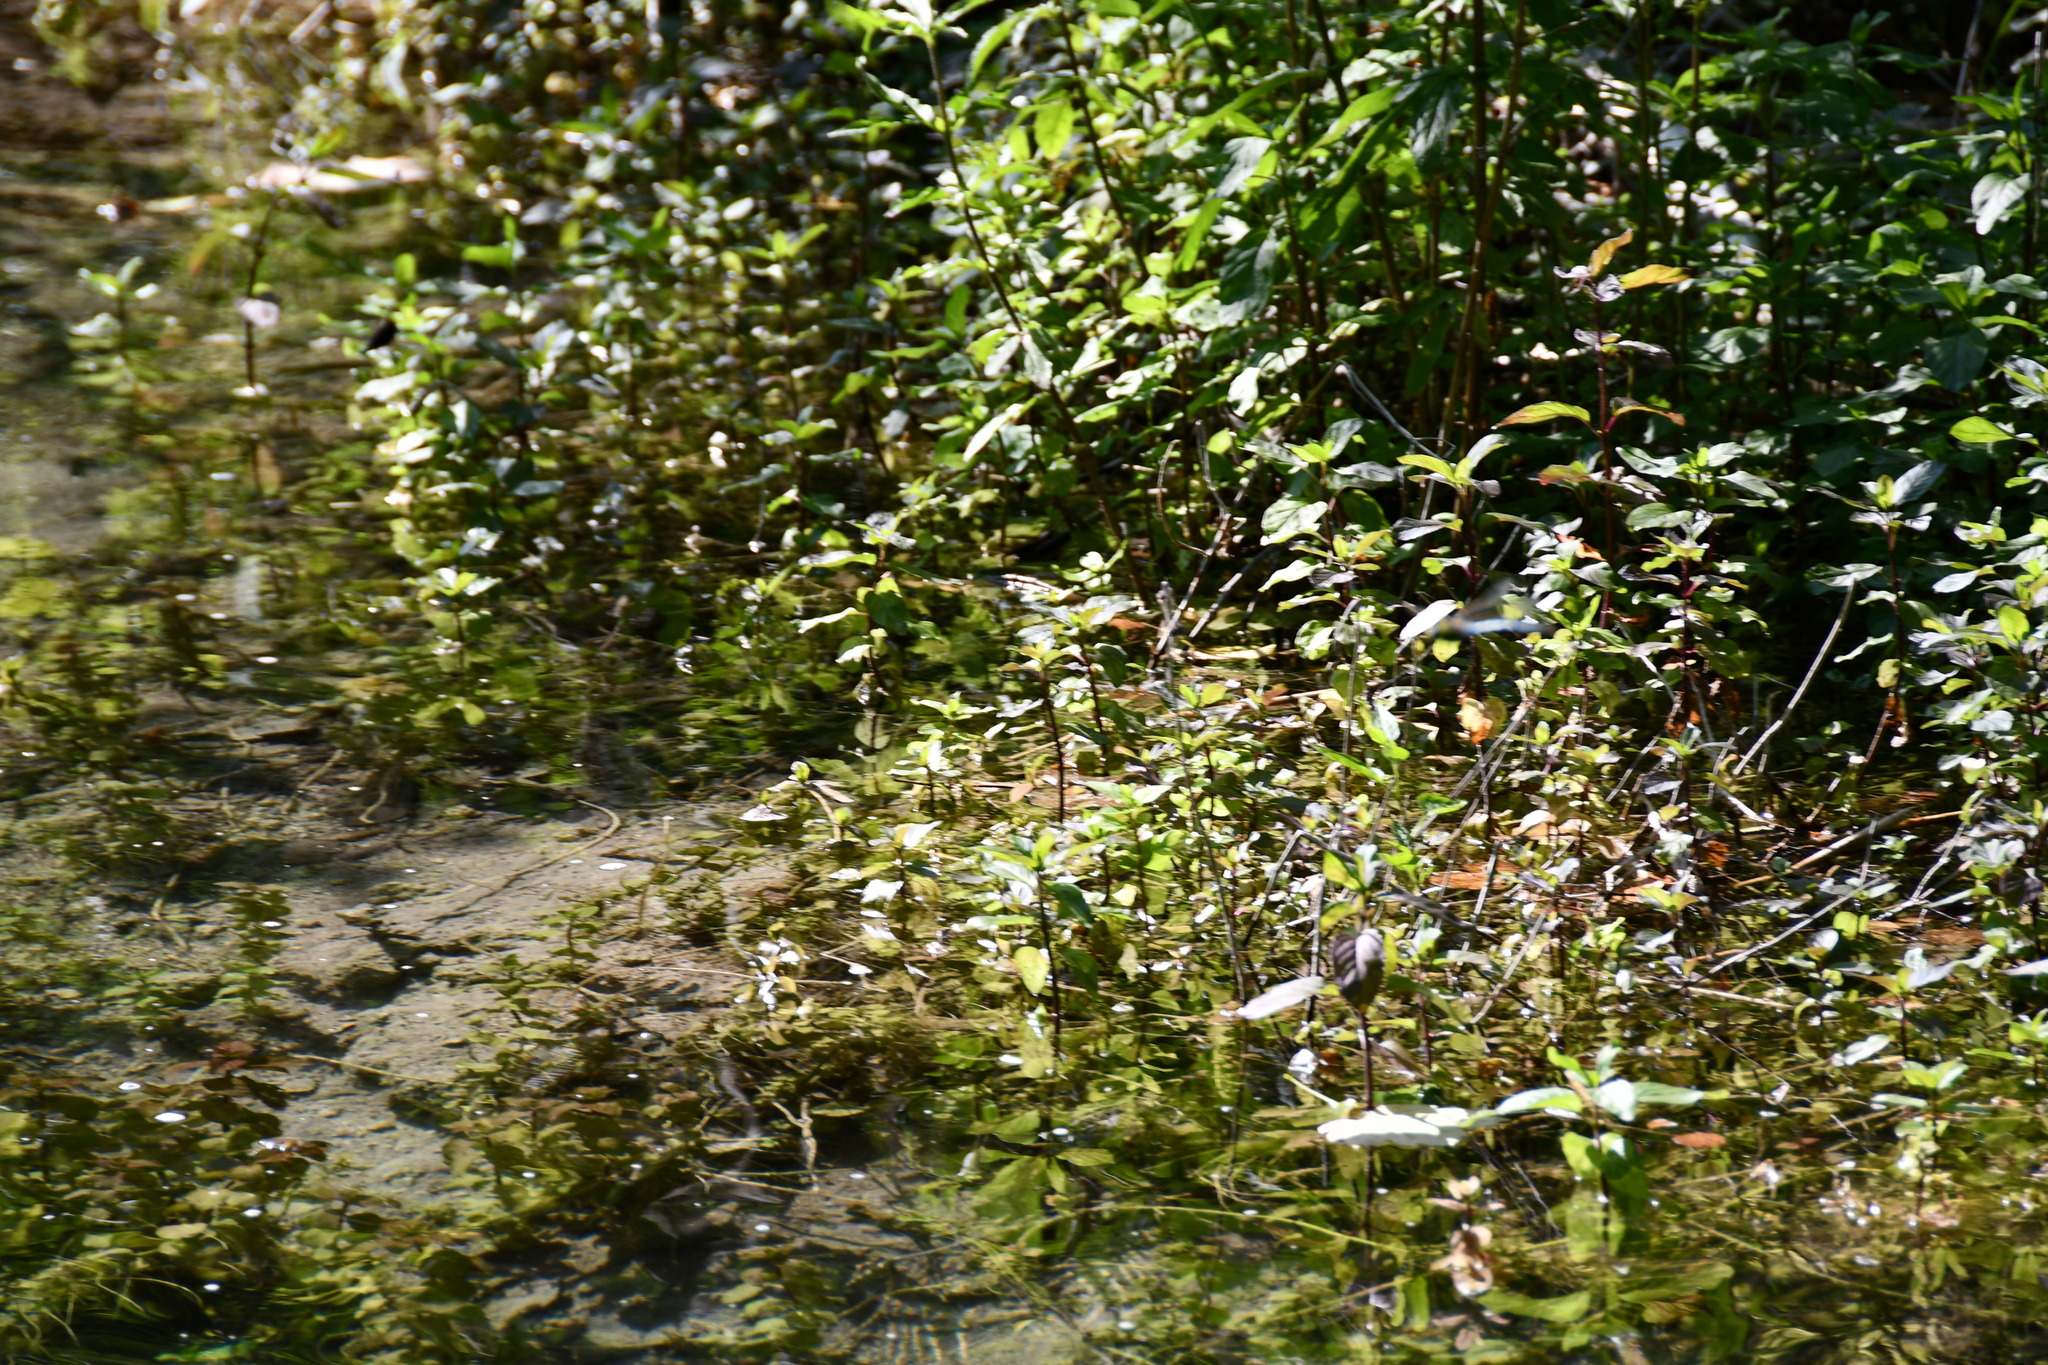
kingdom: Animalia
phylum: Arthropoda
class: Insecta
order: Odonata
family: Aeshnidae
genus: Anax
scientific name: Anax imperator
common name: Emperor dragonfly
